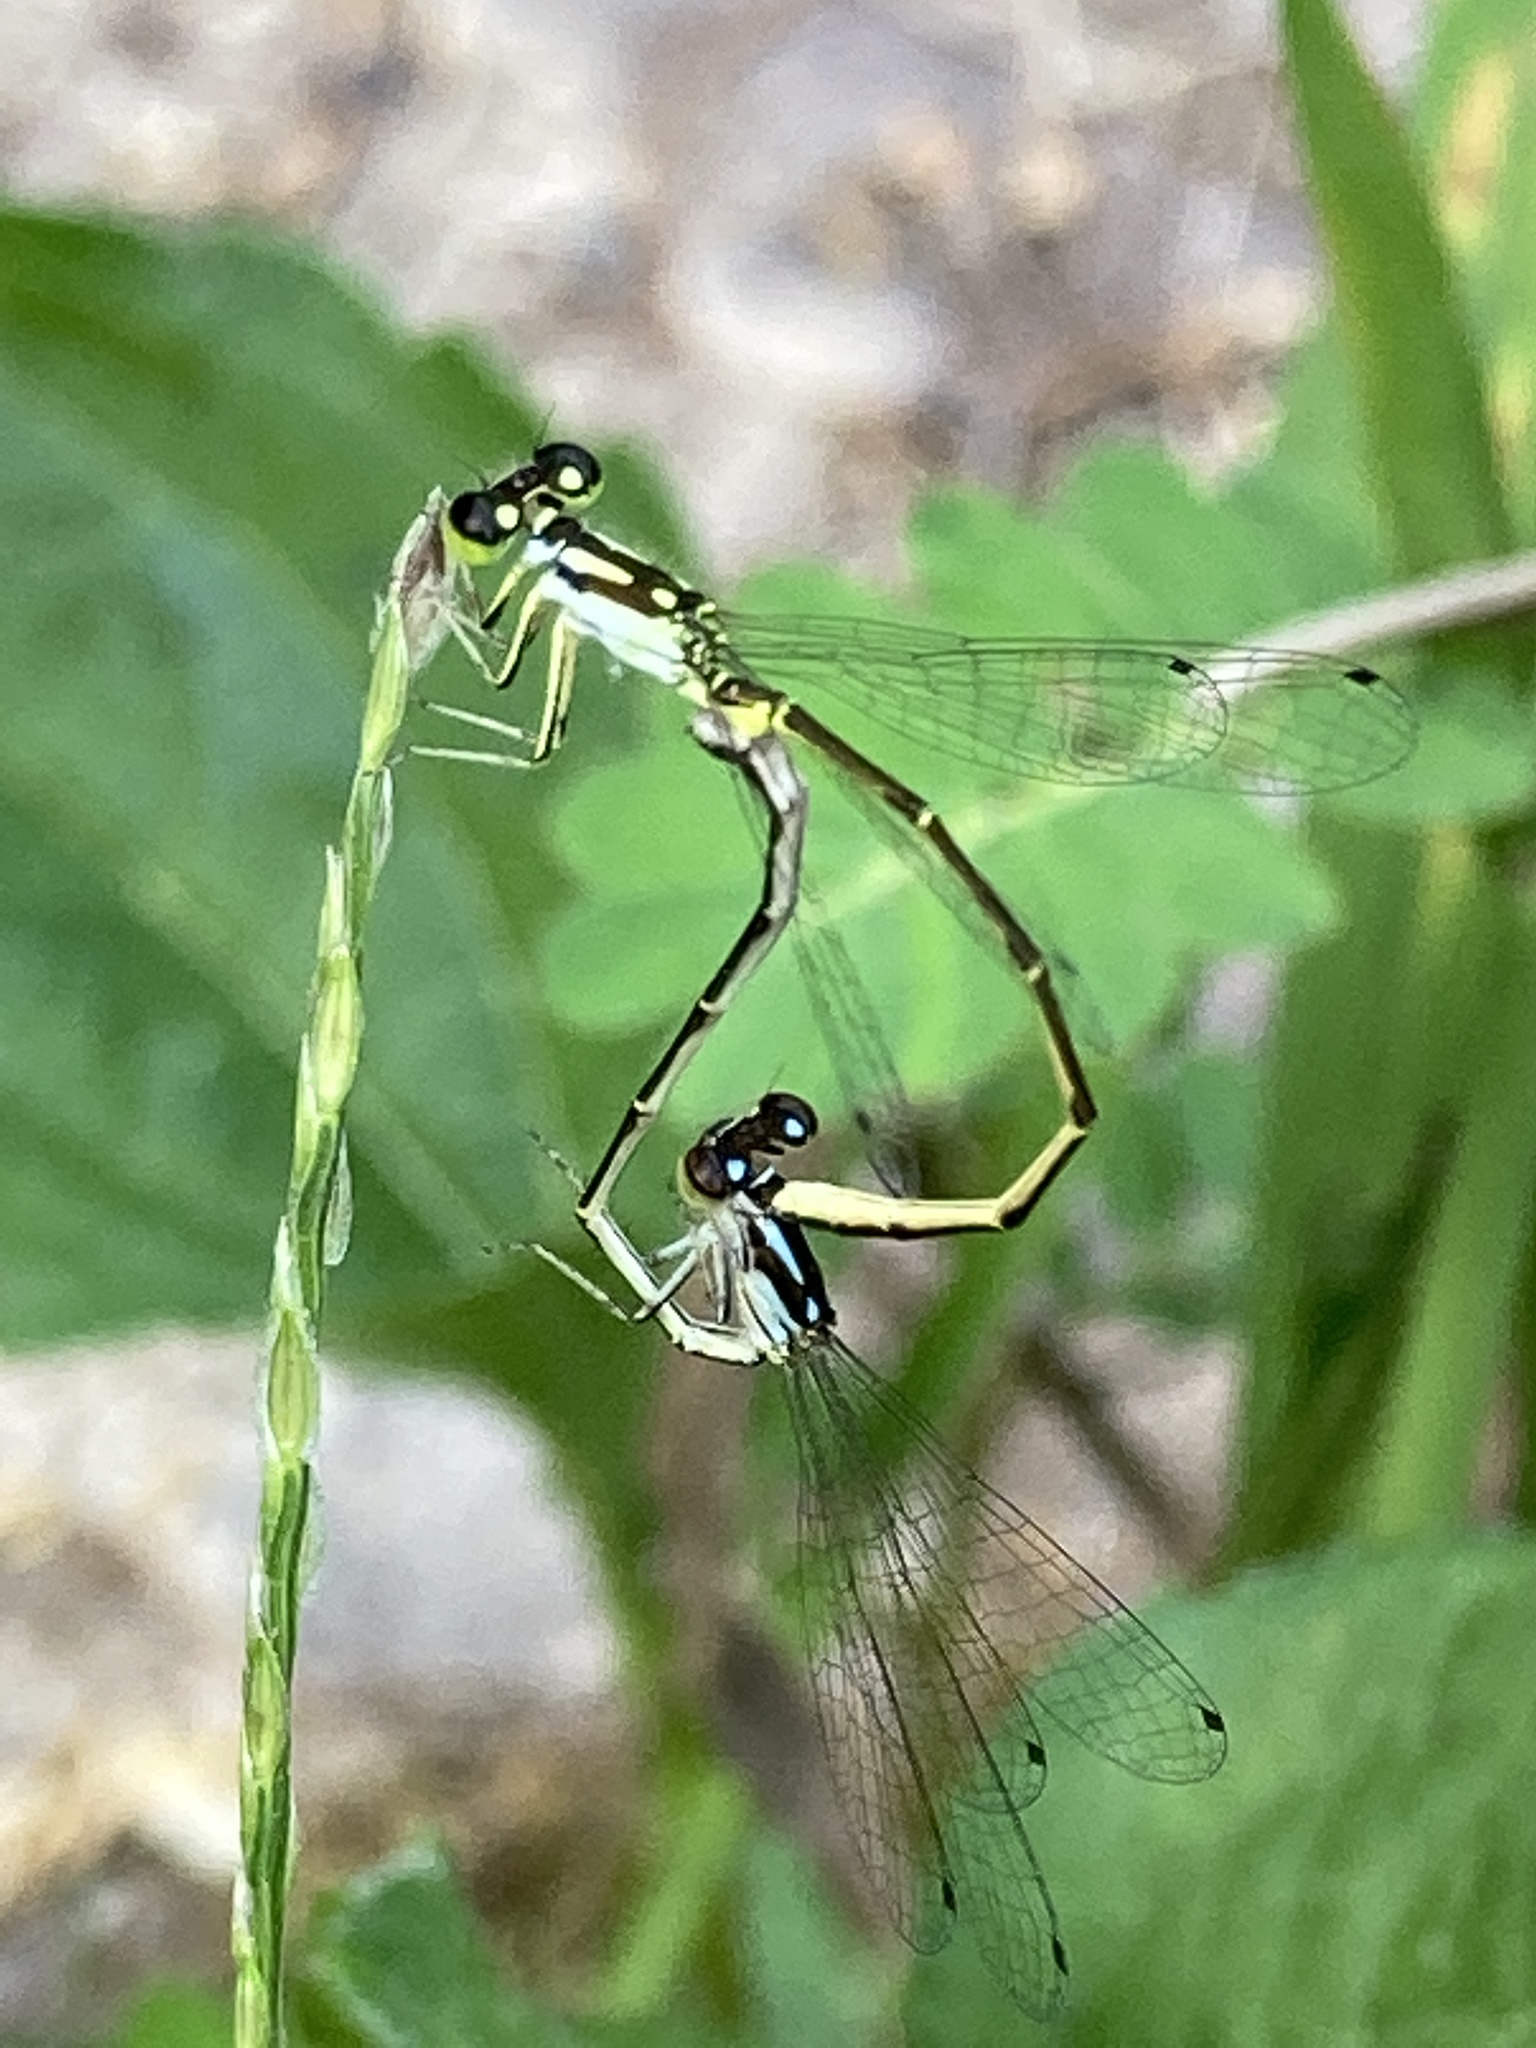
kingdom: Animalia
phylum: Arthropoda
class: Insecta
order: Odonata
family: Coenagrionidae
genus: Ischnura
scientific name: Ischnura posita
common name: Fragile forktail
